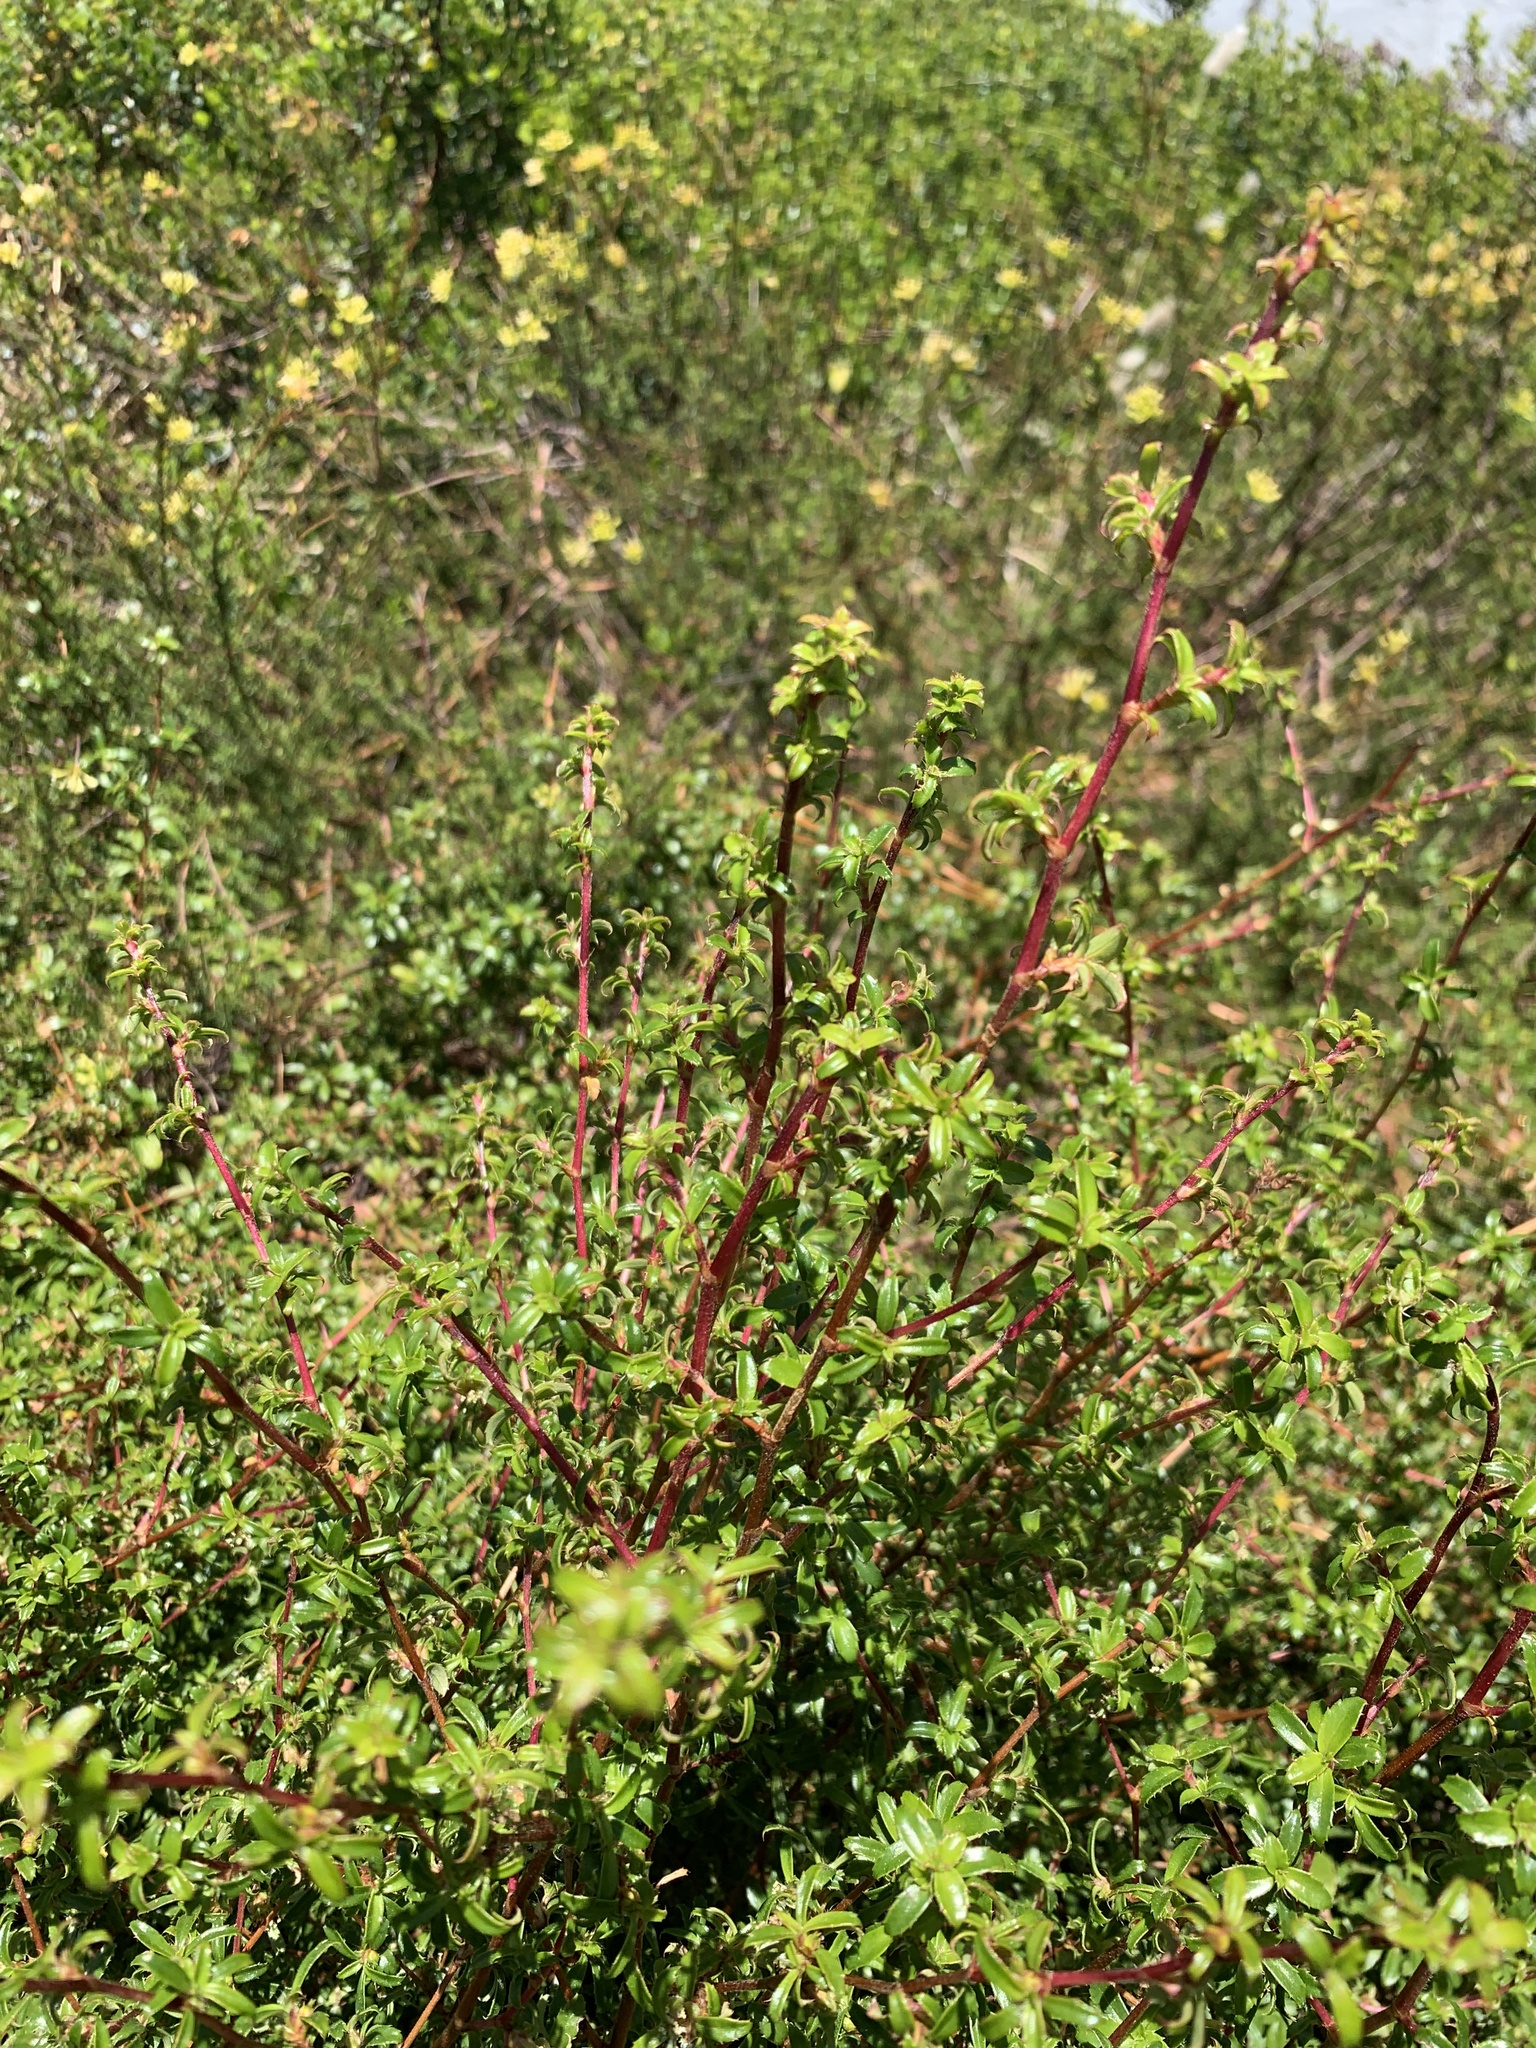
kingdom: Plantae
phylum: Tracheophyta
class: Magnoliopsida
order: Rosales
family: Rosaceae
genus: Cliffortia
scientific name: Cliffortia ferruginea
